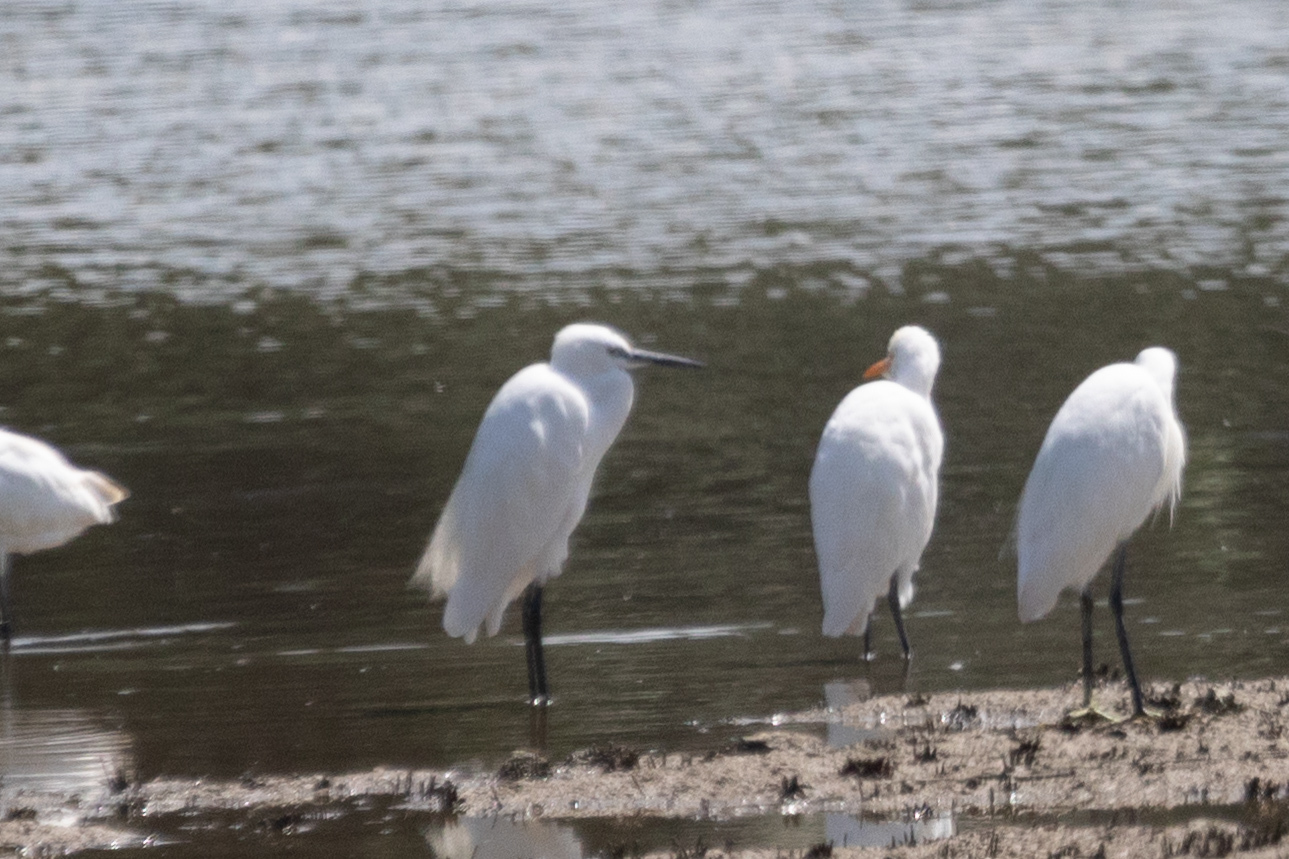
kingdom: Animalia
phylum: Chordata
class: Aves
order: Pelecaniformes
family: Ardeidae
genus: Egretta
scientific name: Egretta garzetta
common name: Little egret
